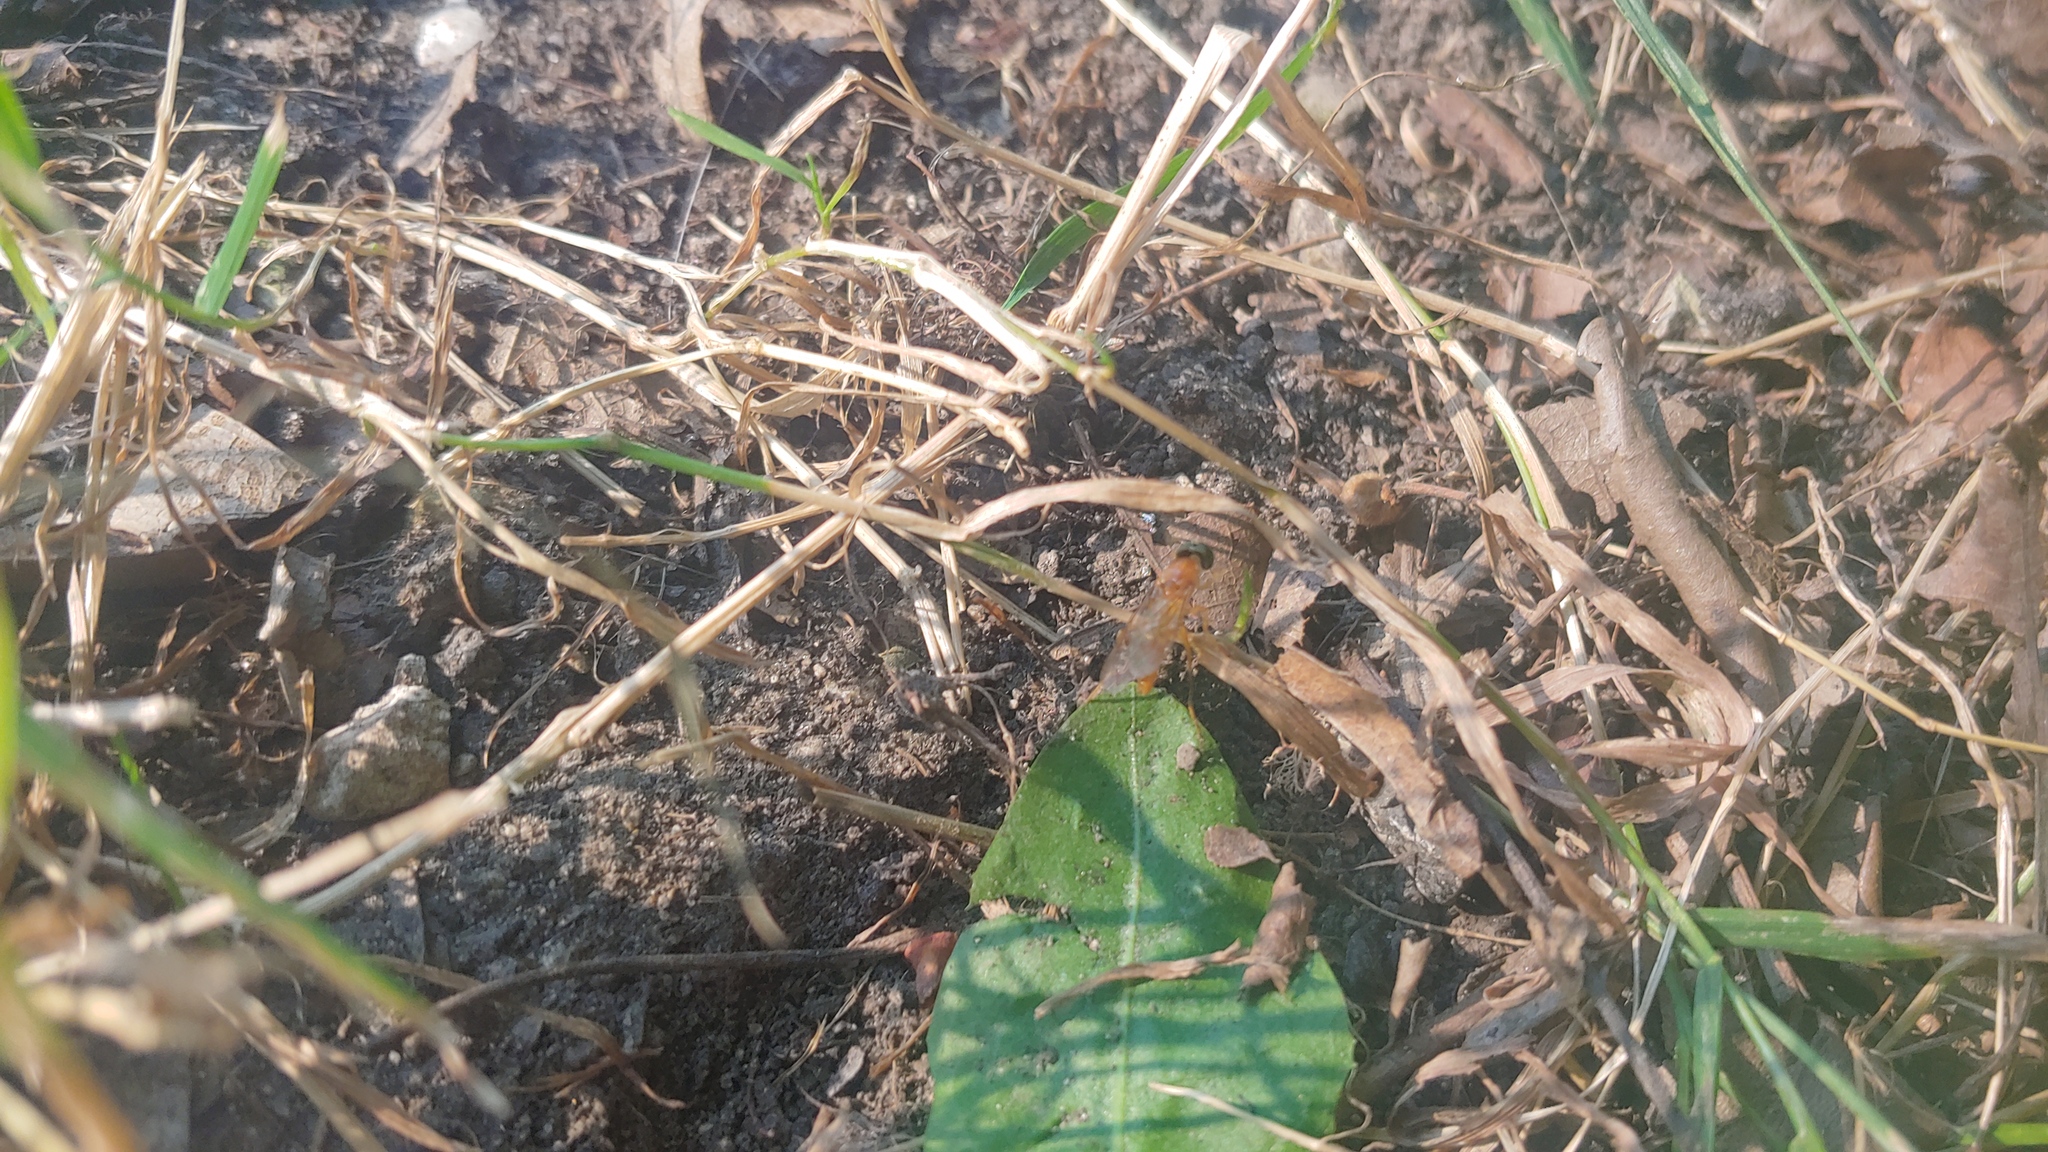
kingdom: Animalia
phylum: Arthropoda
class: Insecta
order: Diptera
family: Stratiomyidae
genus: Ptecticus
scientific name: Ptecticus trivittatus
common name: Compost fly
